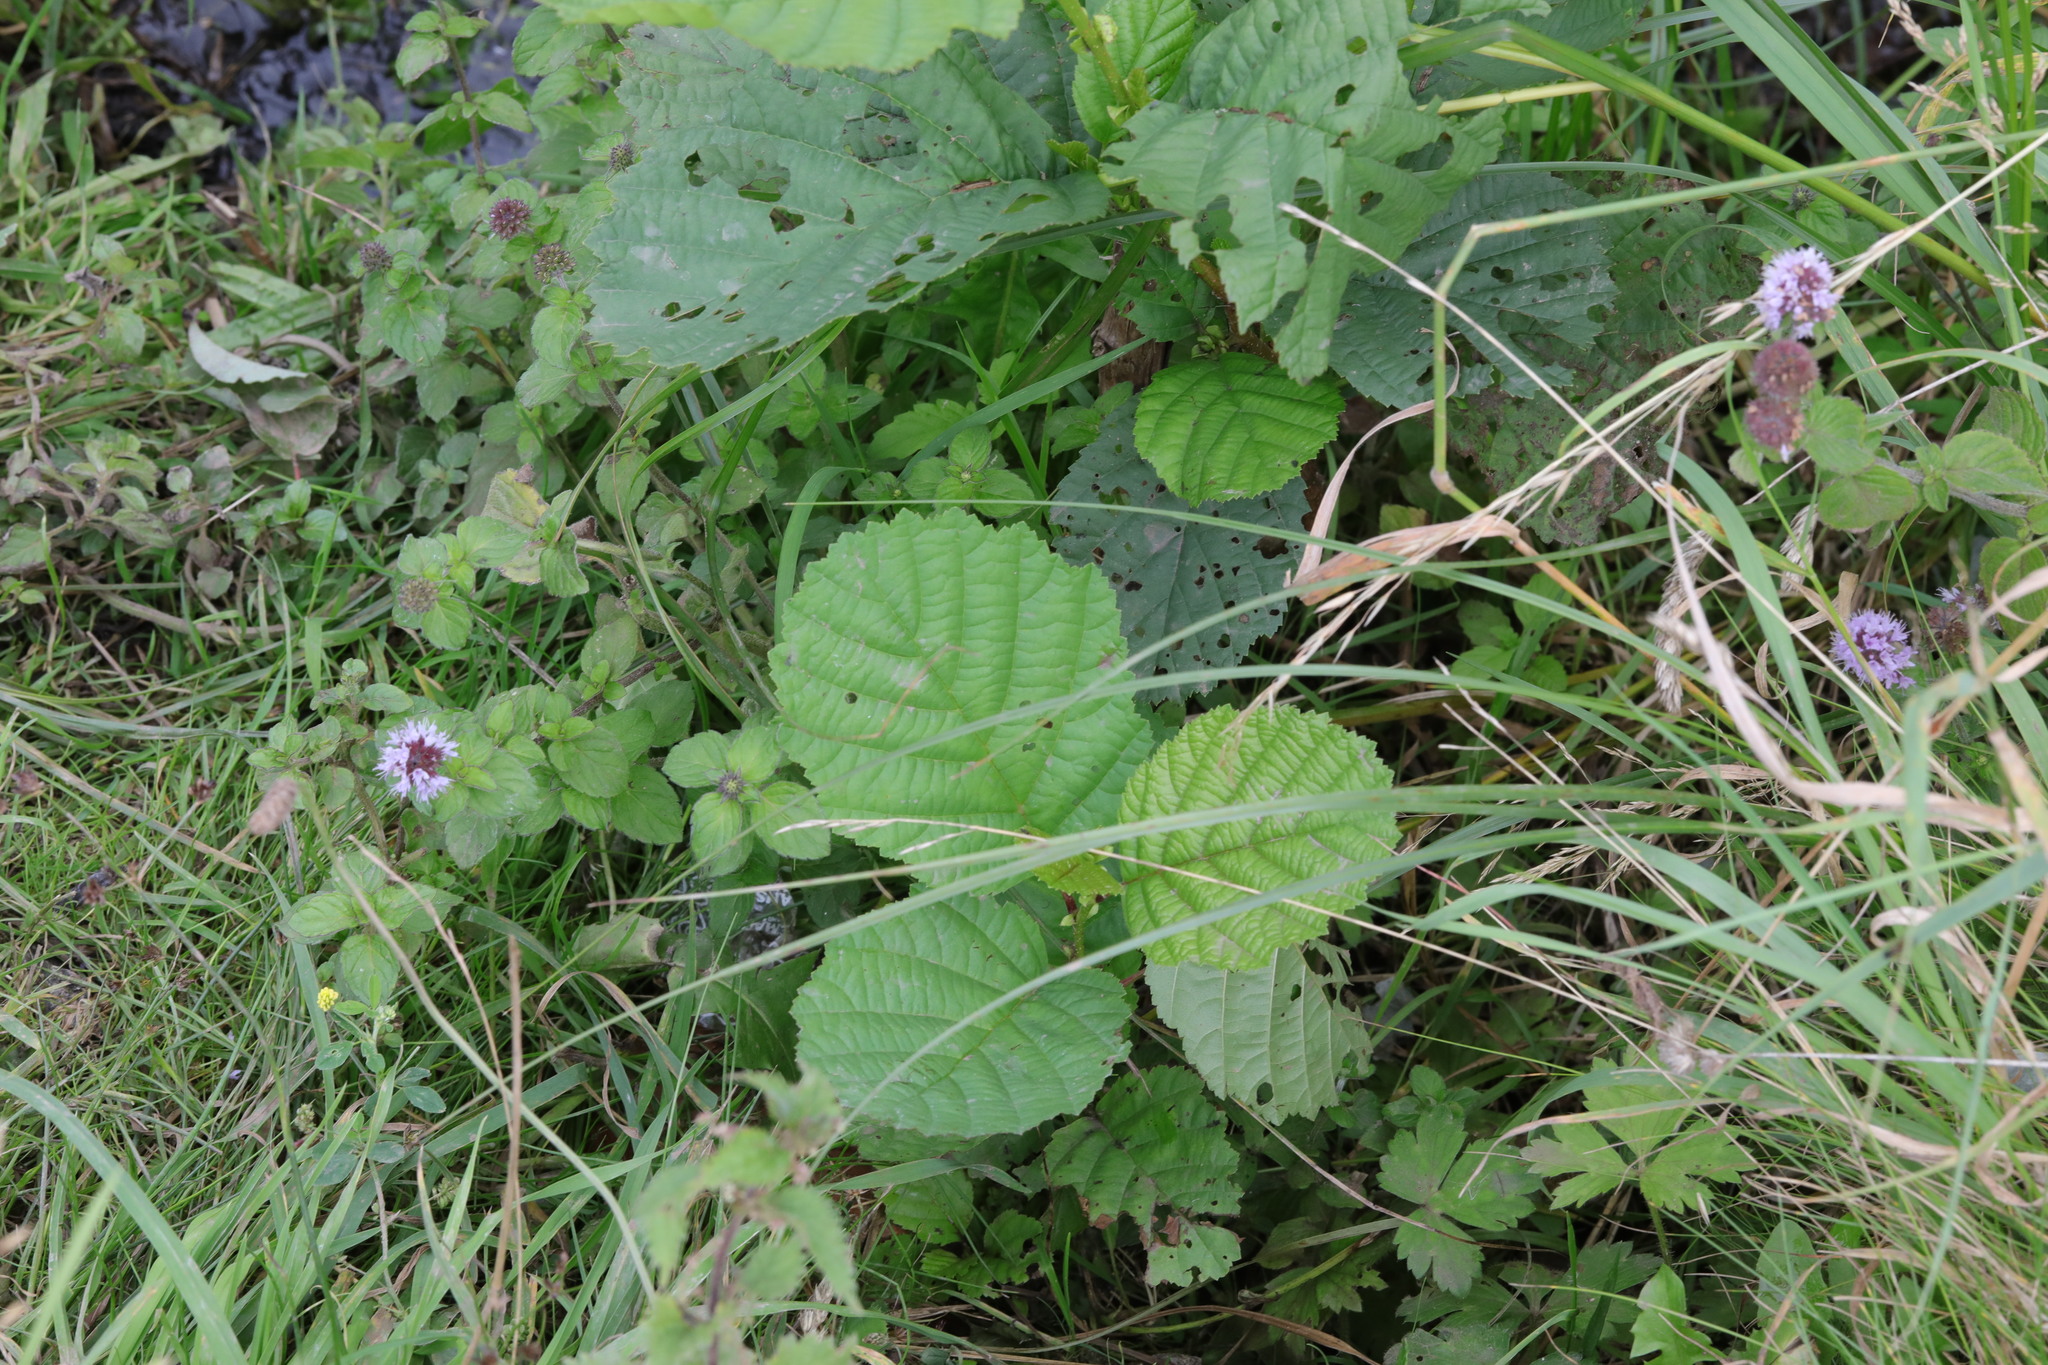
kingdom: Plantae
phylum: Tracheophyta
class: Magnoliopsida
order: Lamiales
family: Lamiaceae
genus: Mentha
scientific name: Mentha aquatica
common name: Water mint
